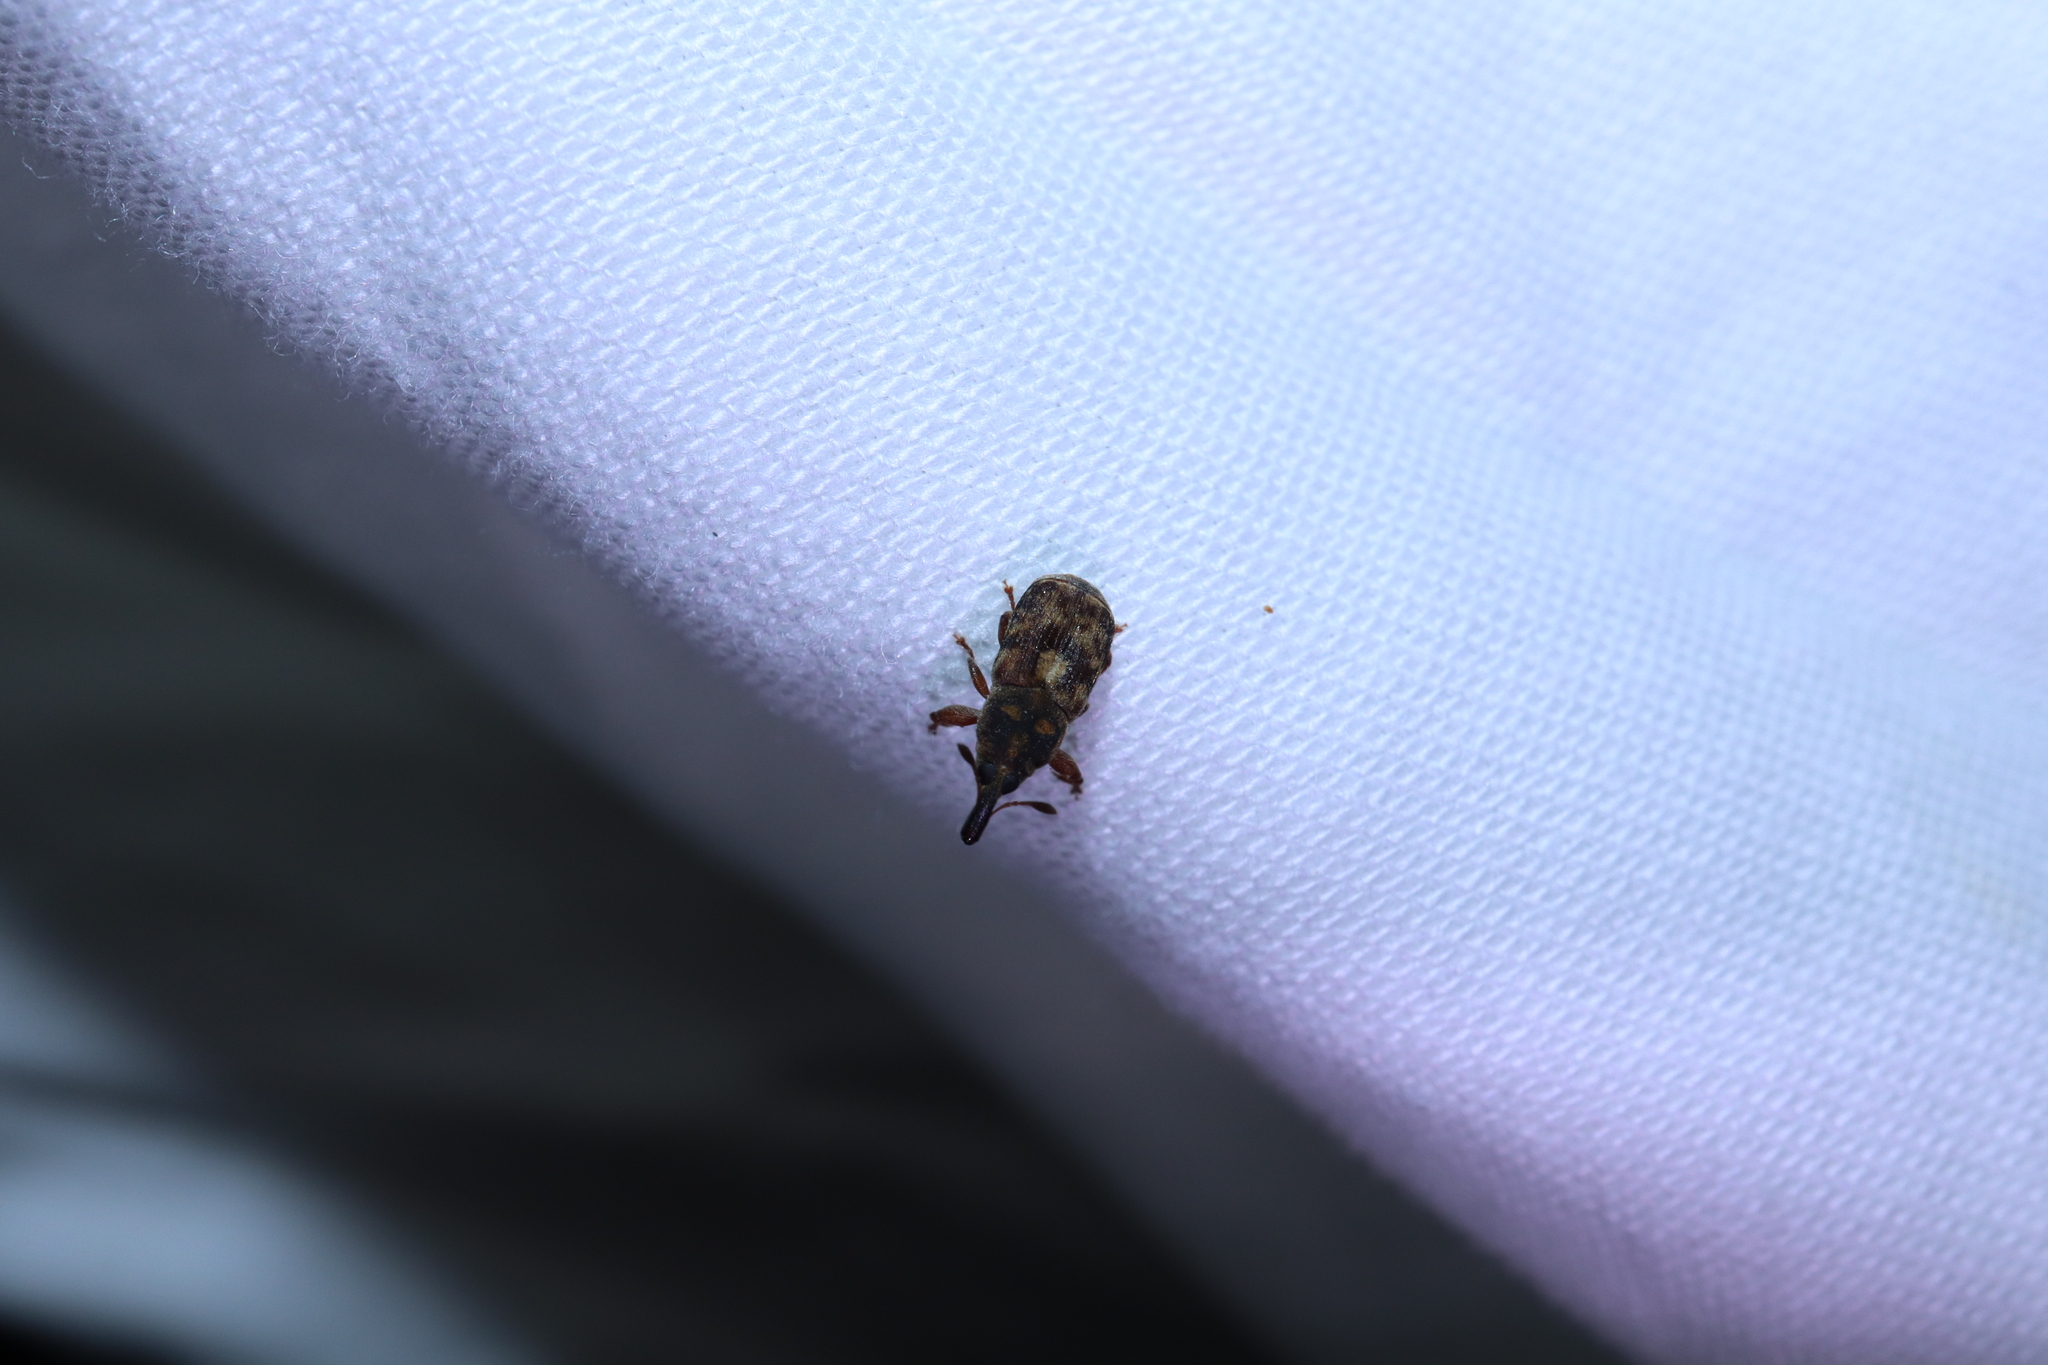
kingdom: Animalia
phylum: Arthropoda
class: Insecta
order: Coleoptera
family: Curculionidae
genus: Neolaemosaccus
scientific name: Neolaemosaccus nigriceps
